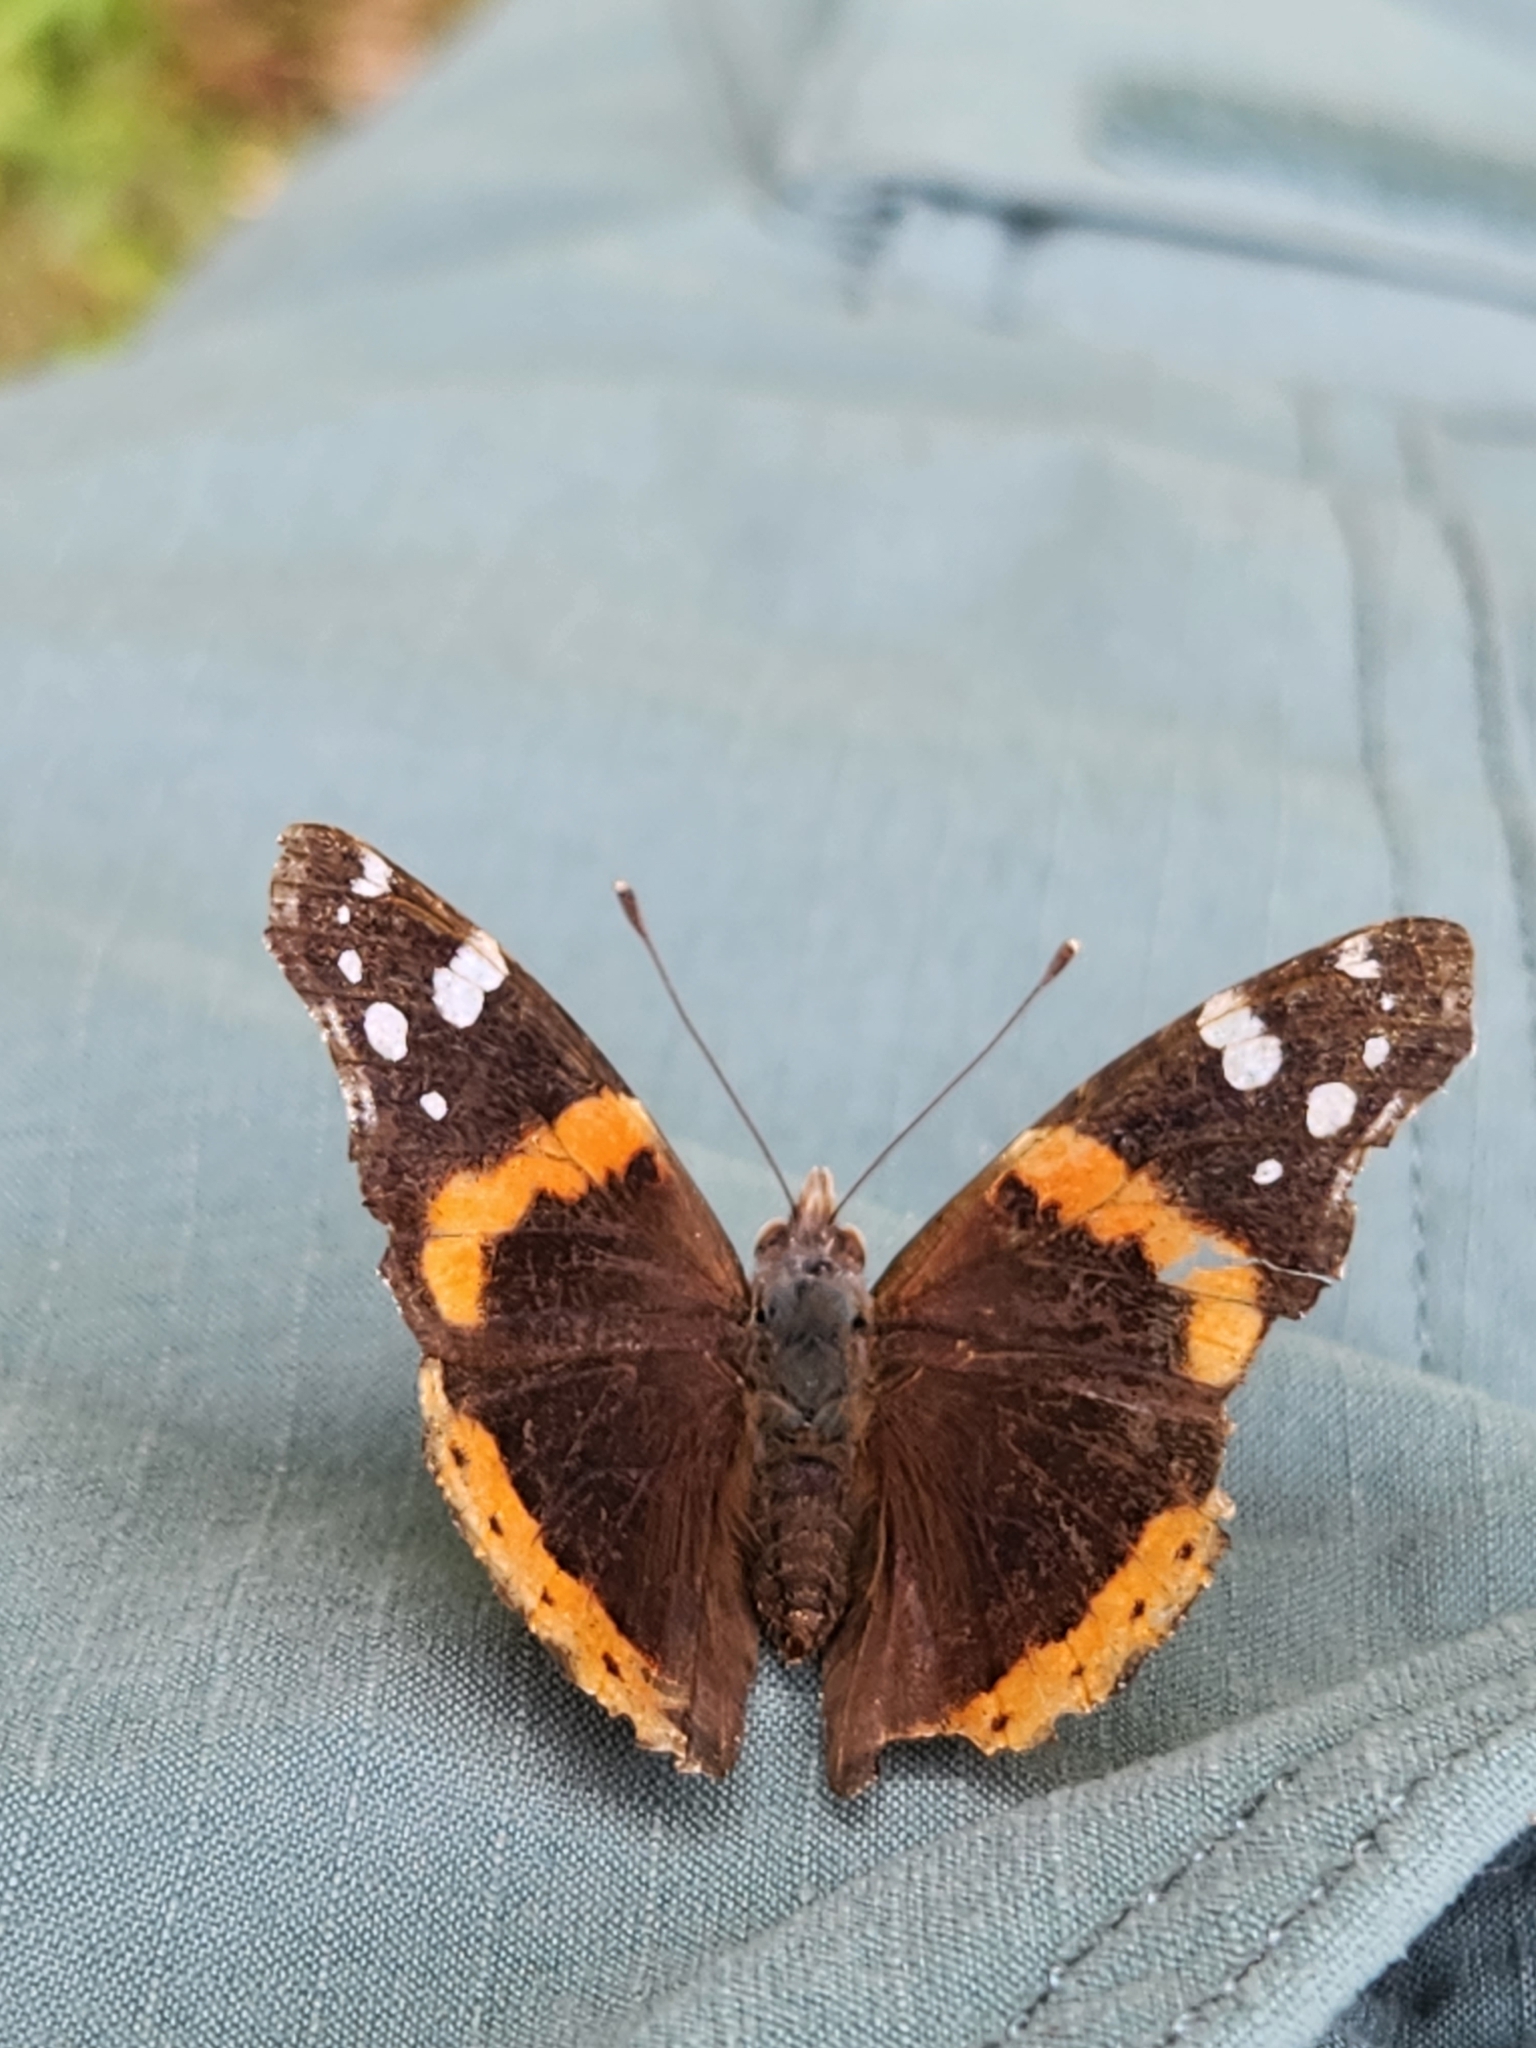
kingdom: Animalia
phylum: Arthropoda
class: Insecta
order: Lepidoptera
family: Nymphalidae
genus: Vanessa
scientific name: Vanessa atalanta
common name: Red admiral
